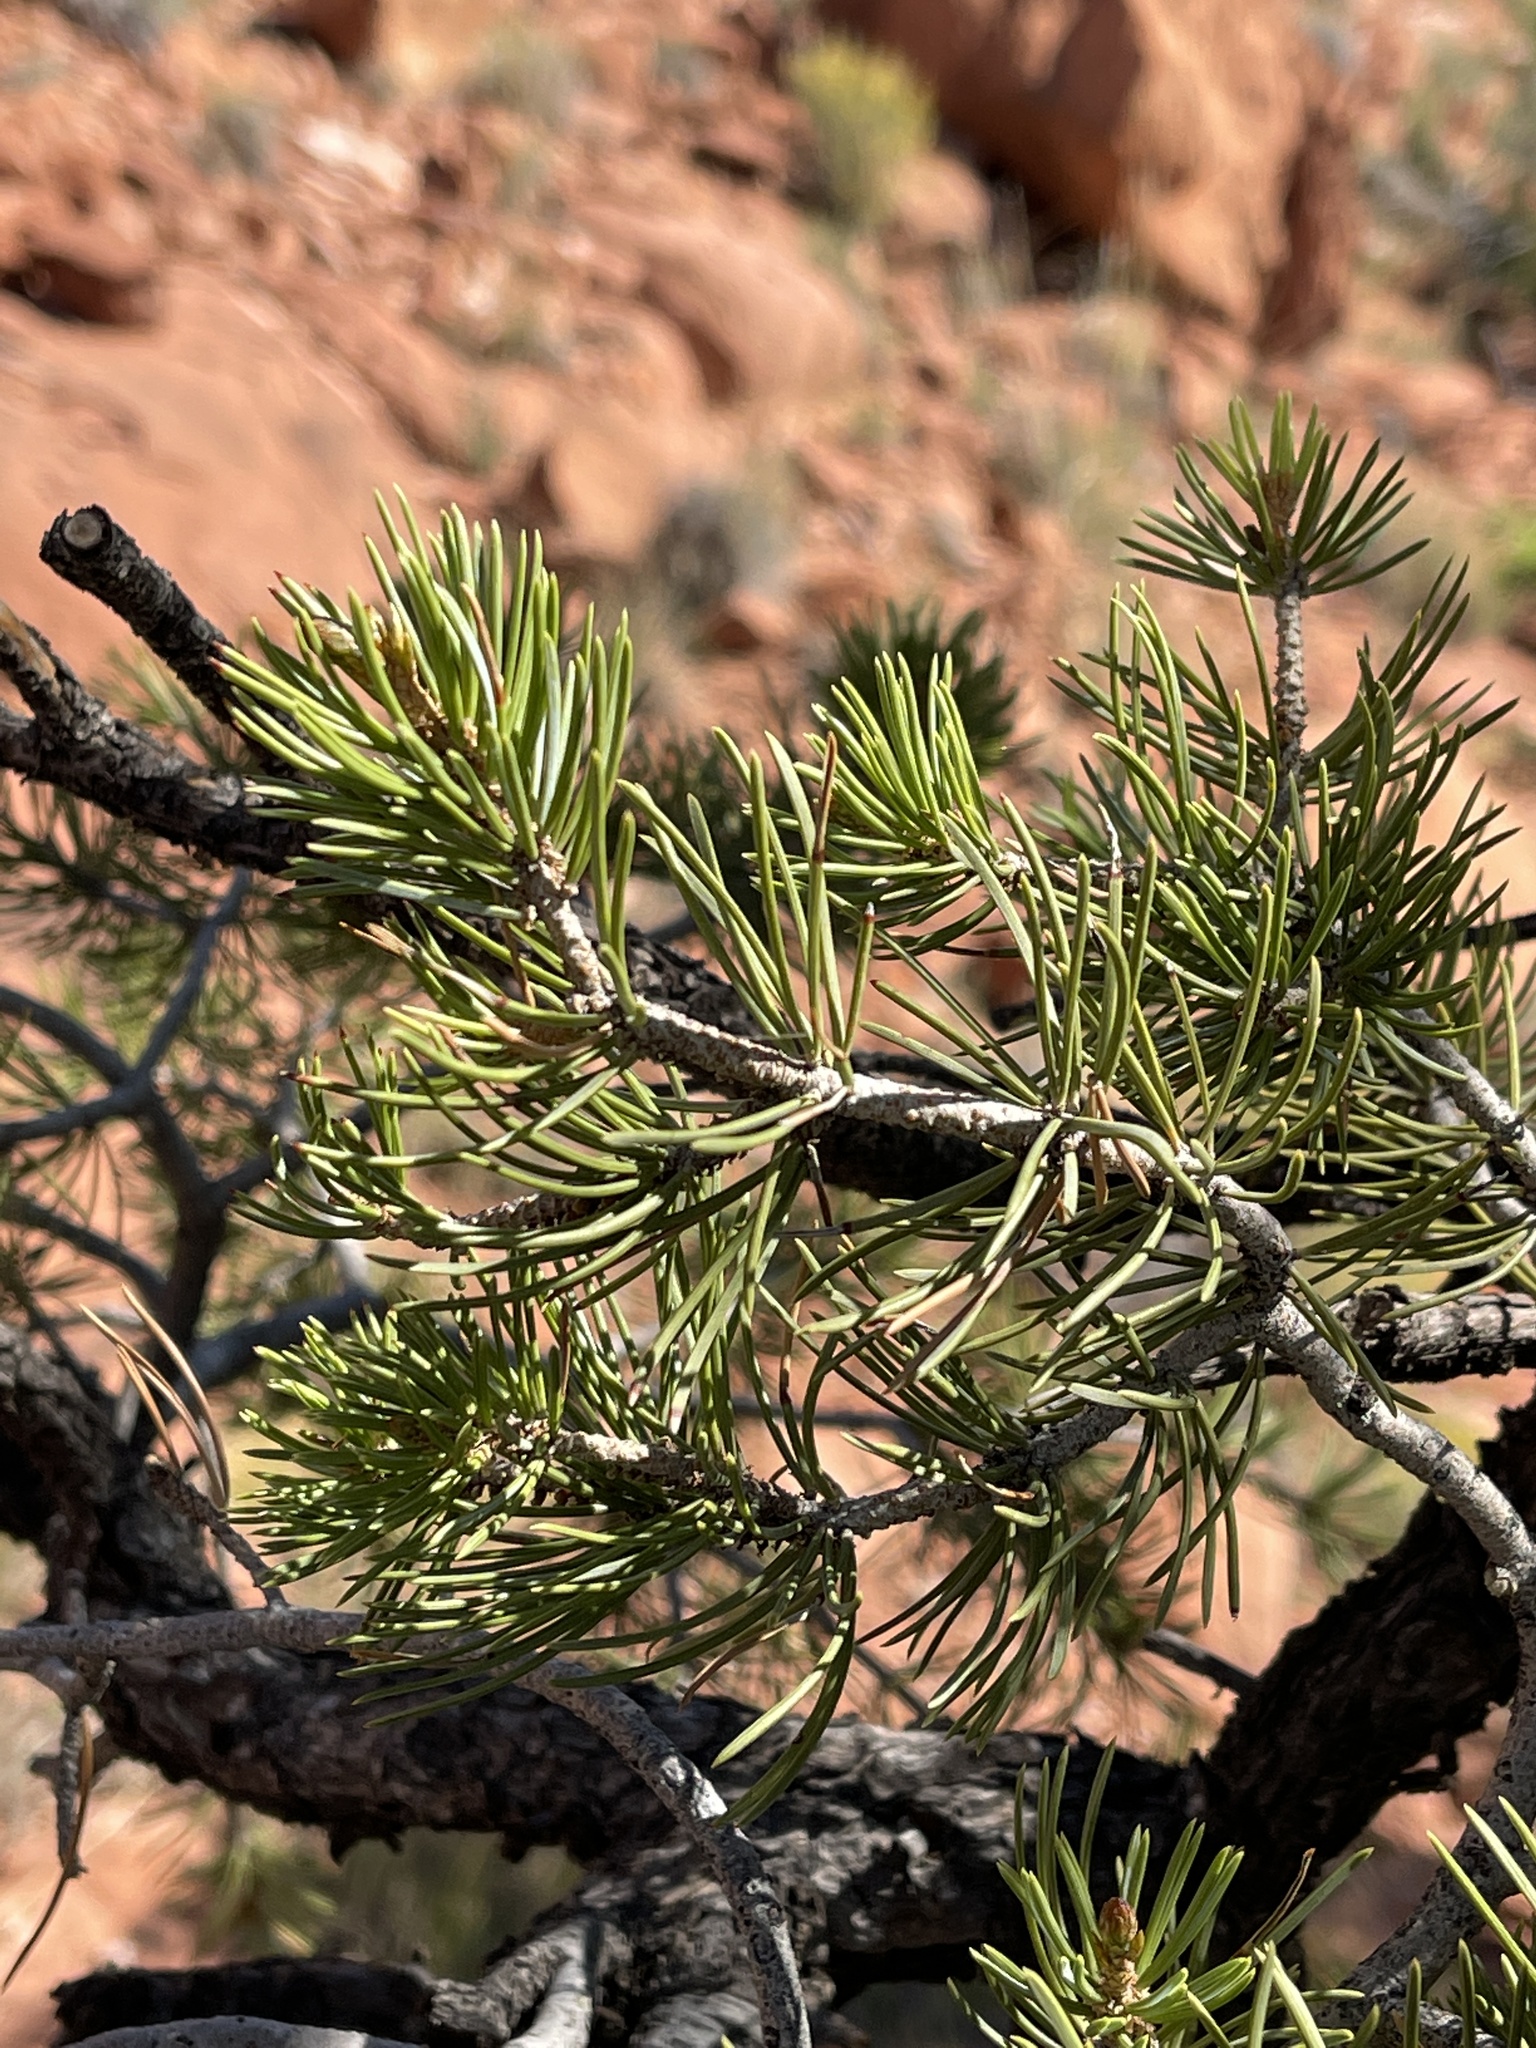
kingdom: Plantae
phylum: Tracheophyta
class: Pinopsida
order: Pinales
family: Pinaceae
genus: Pinus
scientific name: Pinus edulis
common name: Colorado pinyon
